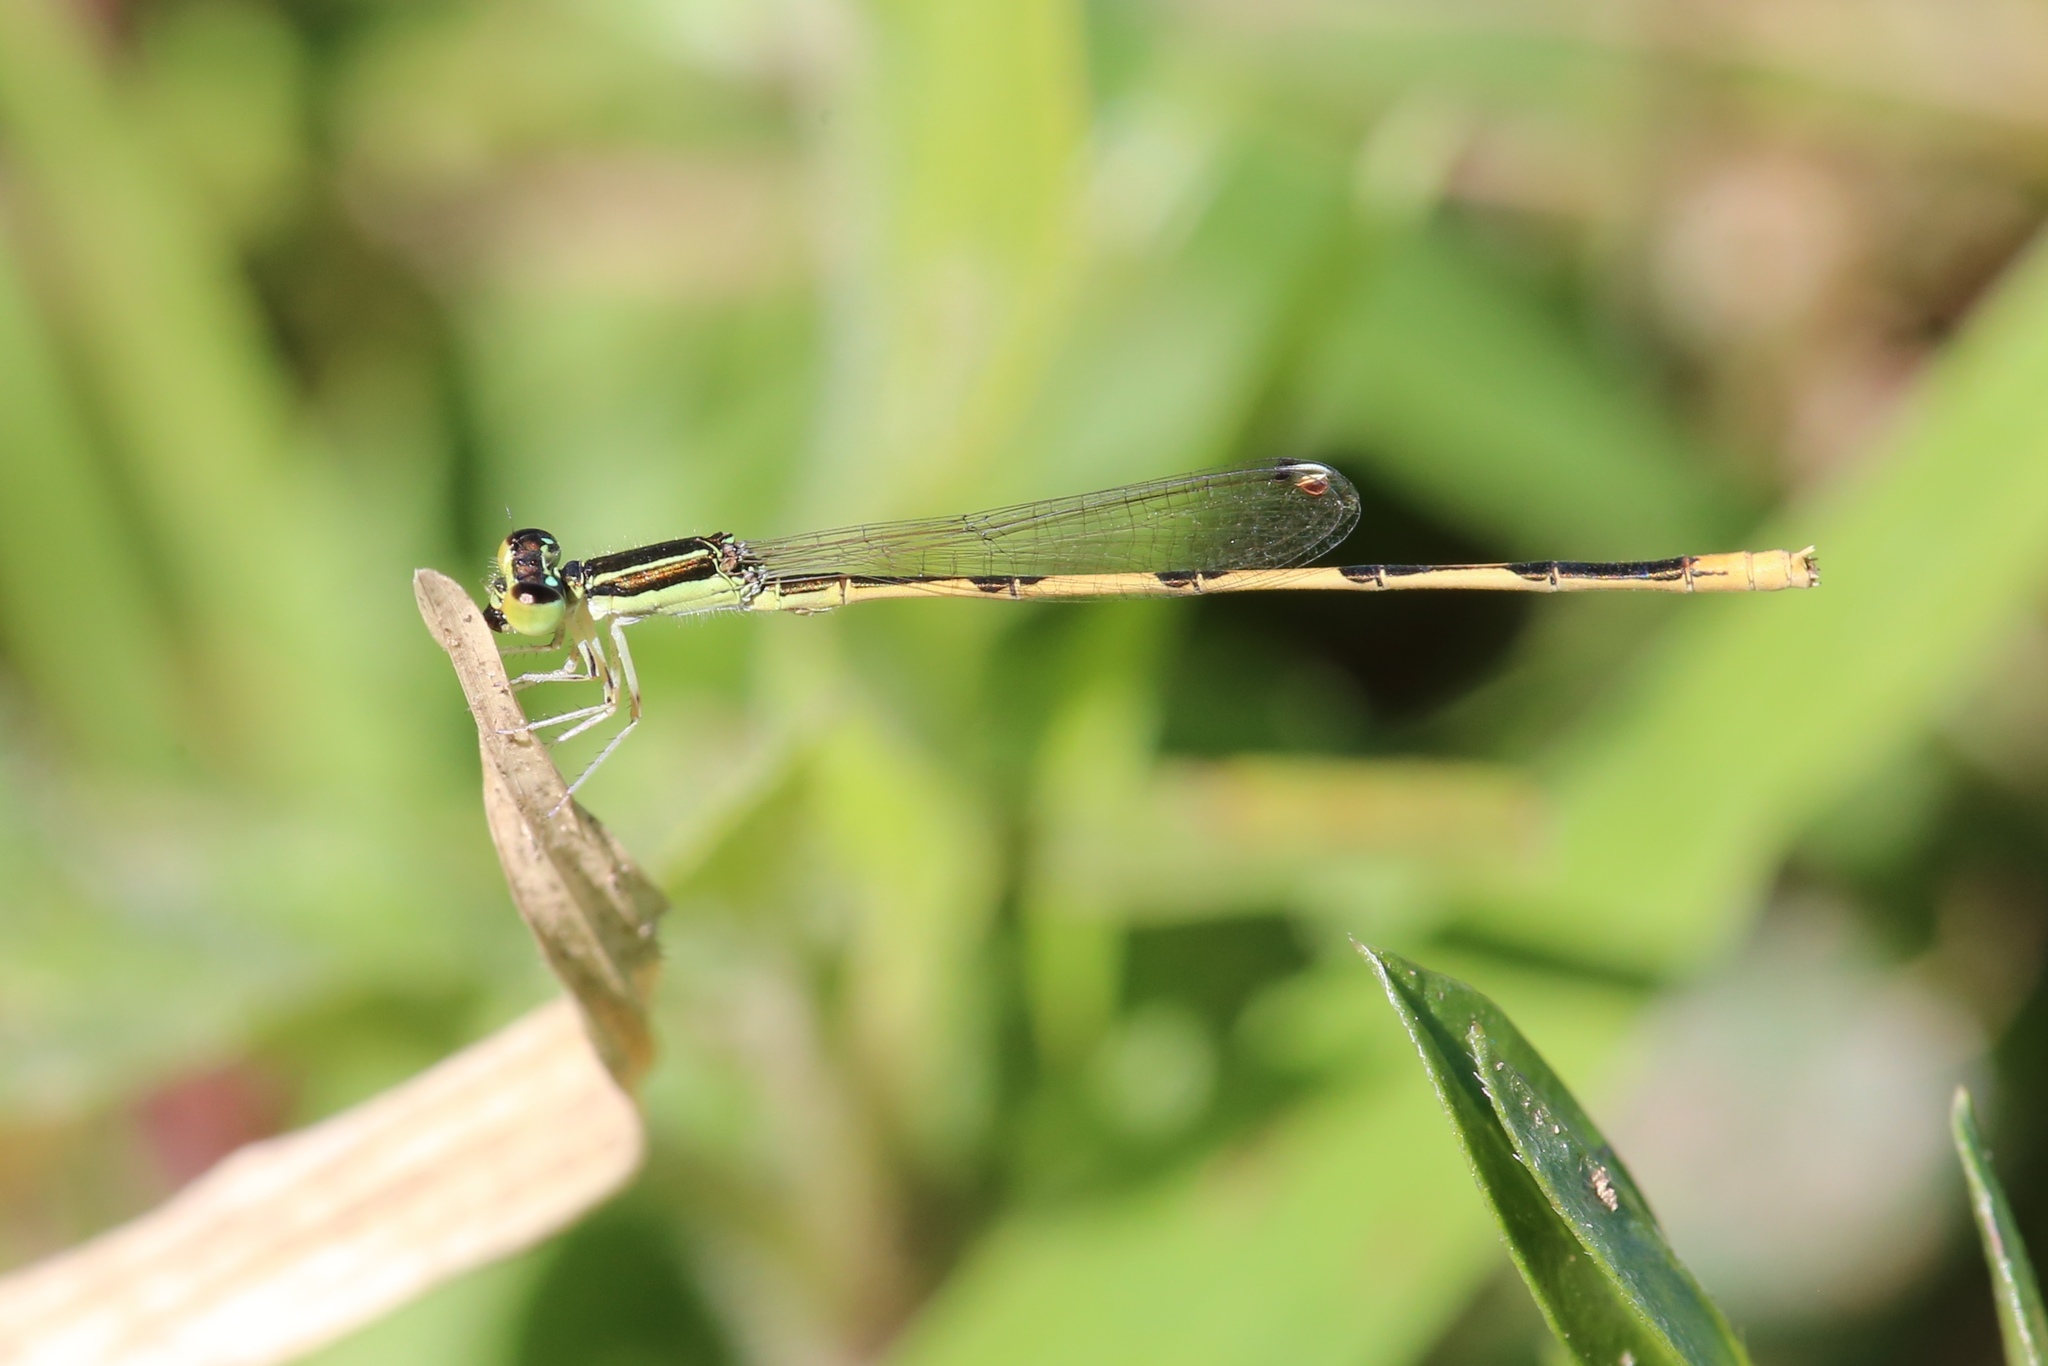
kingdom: Animalia
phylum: Arthropoda
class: Insecta
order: Odonata
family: Coenagrionidae
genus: Ischnura
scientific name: Ischnura hastata
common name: Citrine forktail
